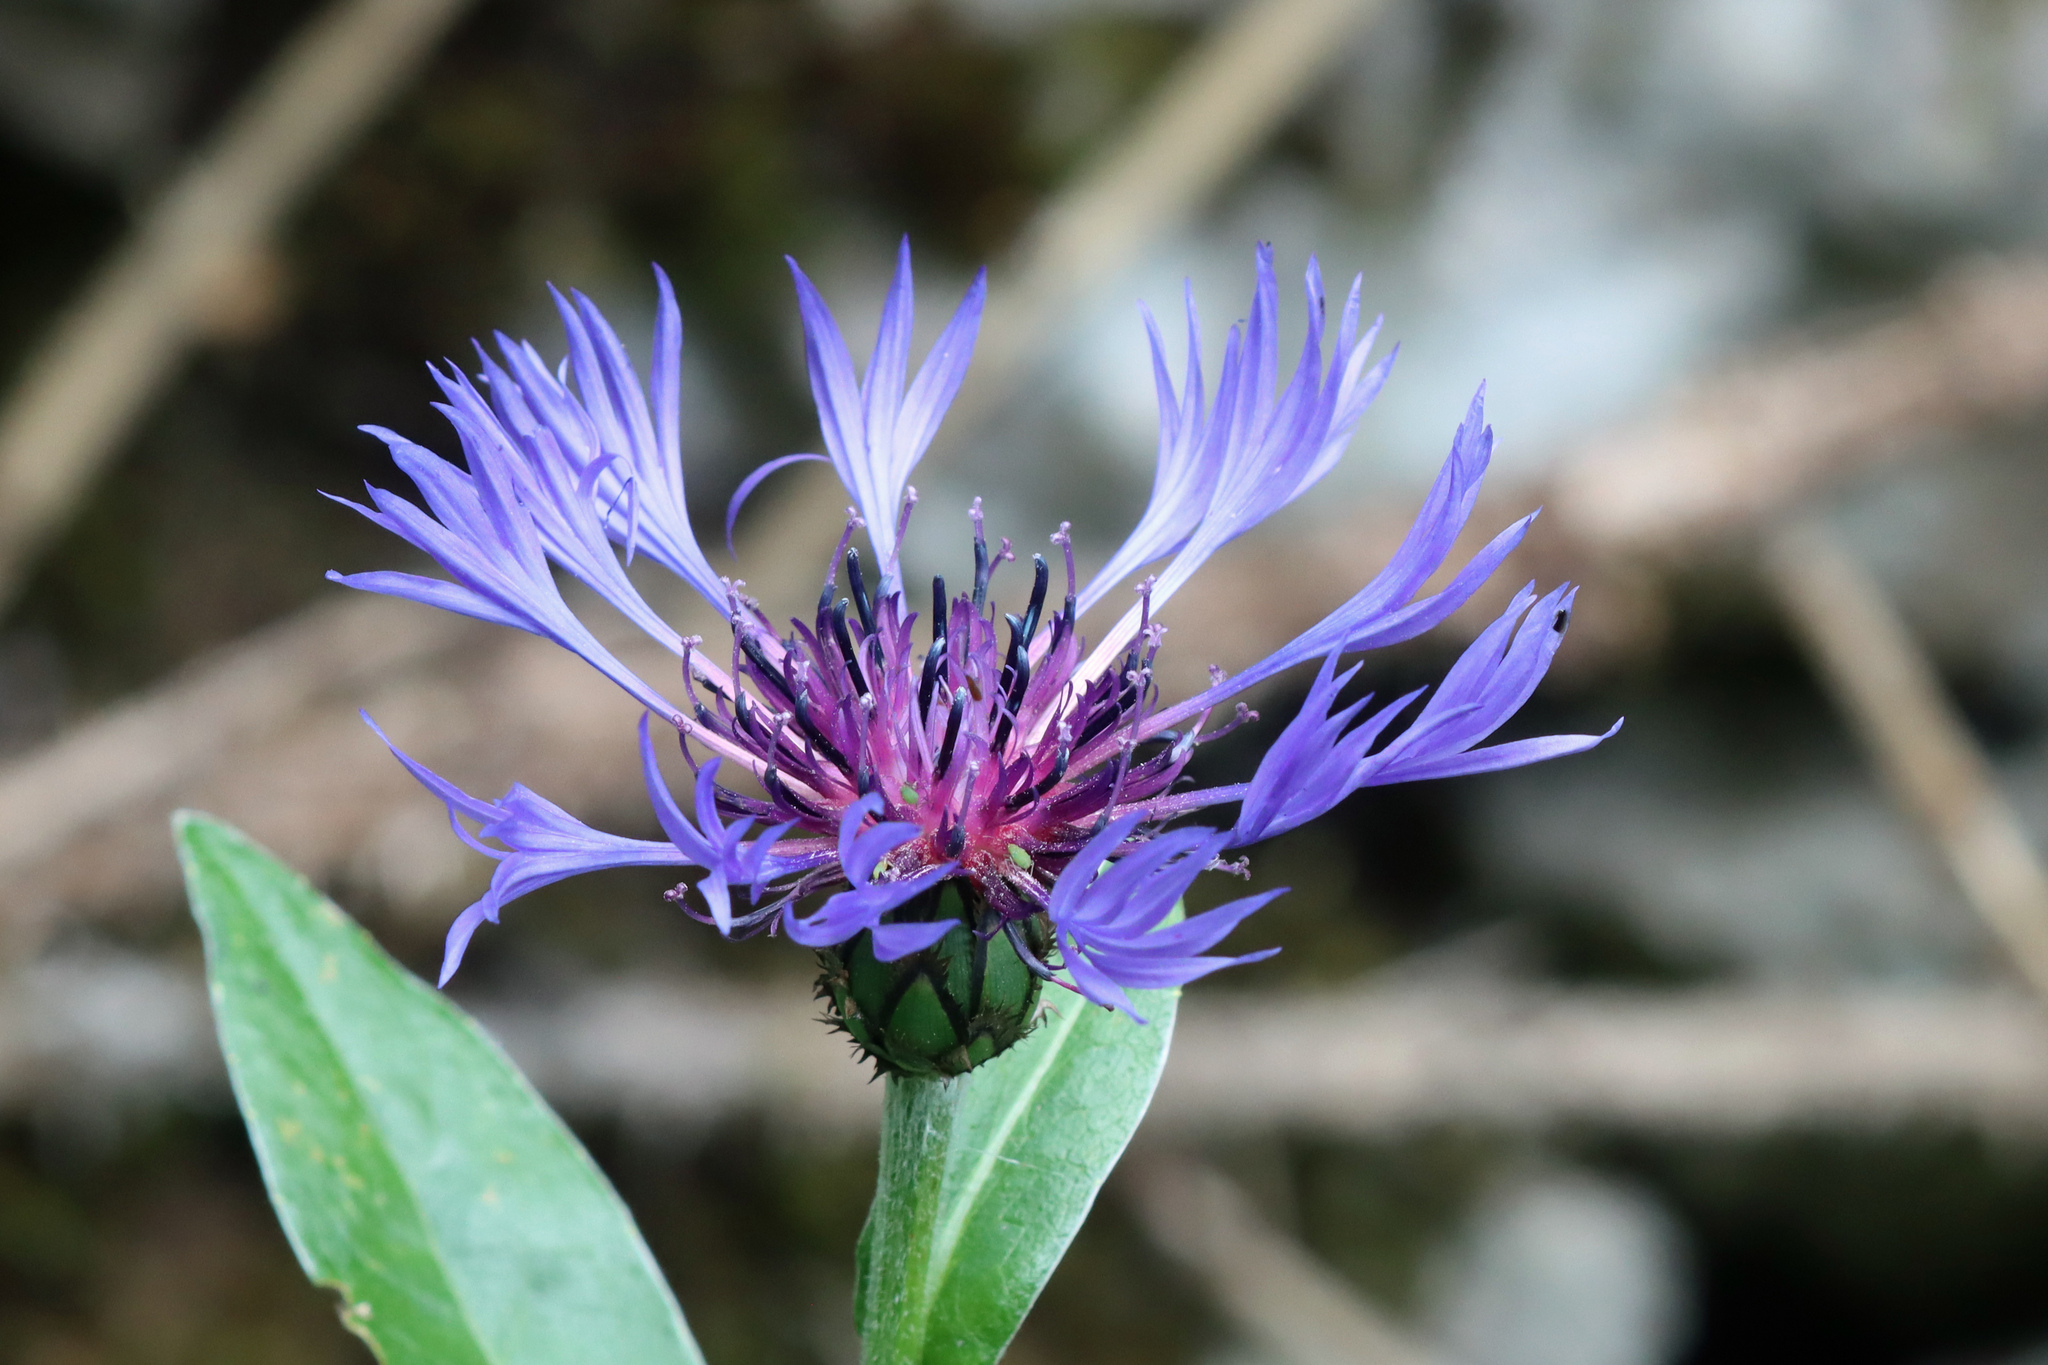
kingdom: Plantae
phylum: Tracheophyta
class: Magnoliopsida
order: Asterales
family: Asteraceae
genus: Centaurea
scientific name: Centaurea montana
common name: Perennial cornflower
